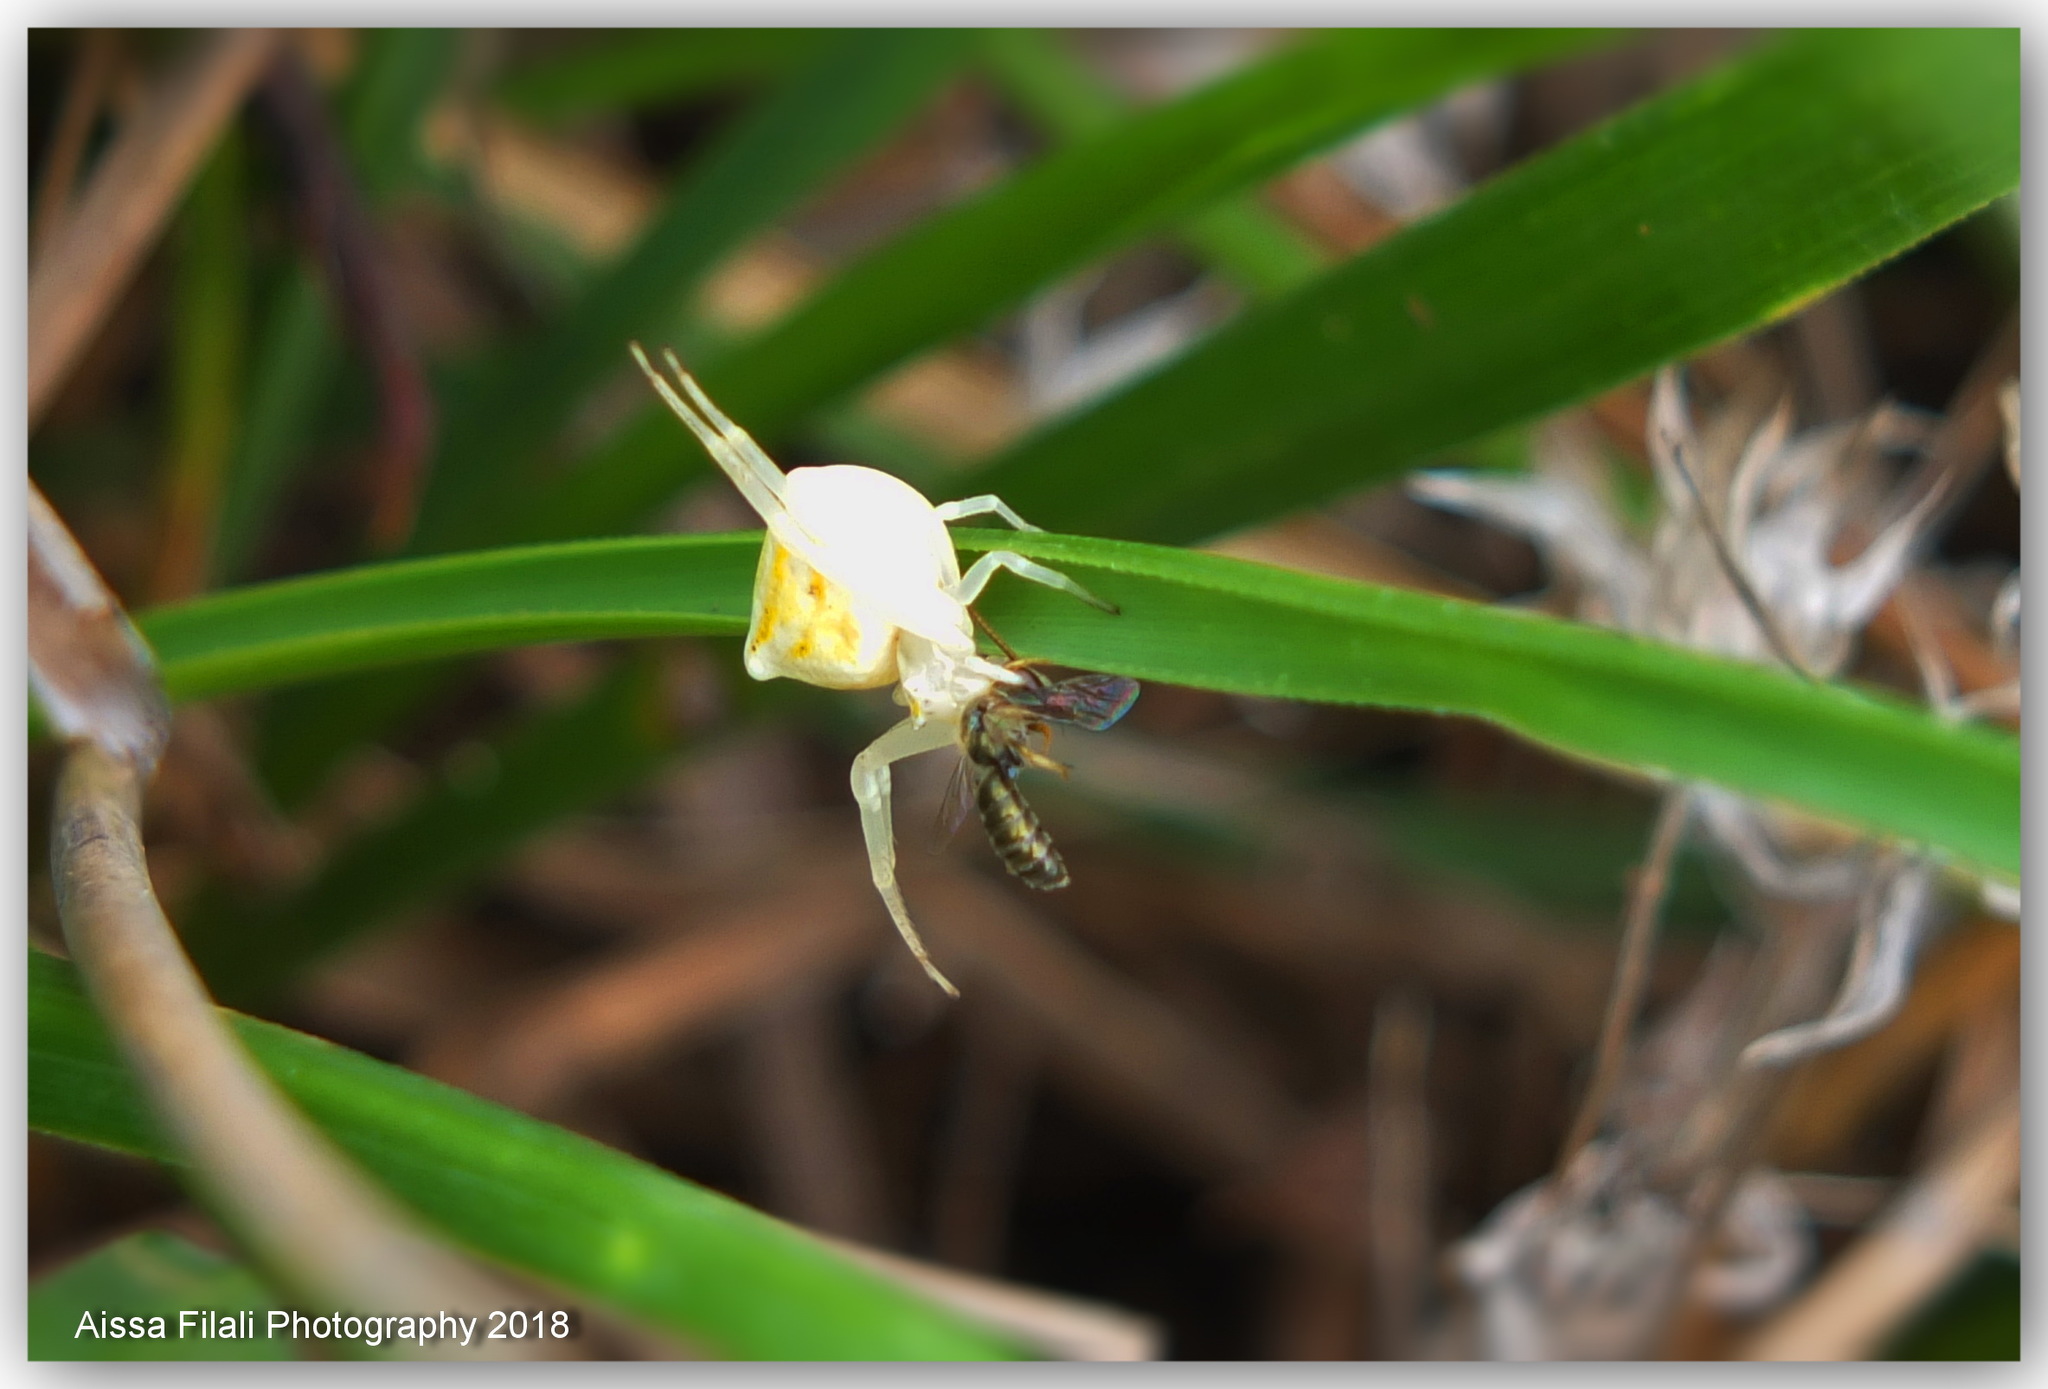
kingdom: Animalia
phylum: Arthropoda
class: Arachnida
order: Araneae
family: Thomisidae
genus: Thomisus
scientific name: Thomisus onustus
